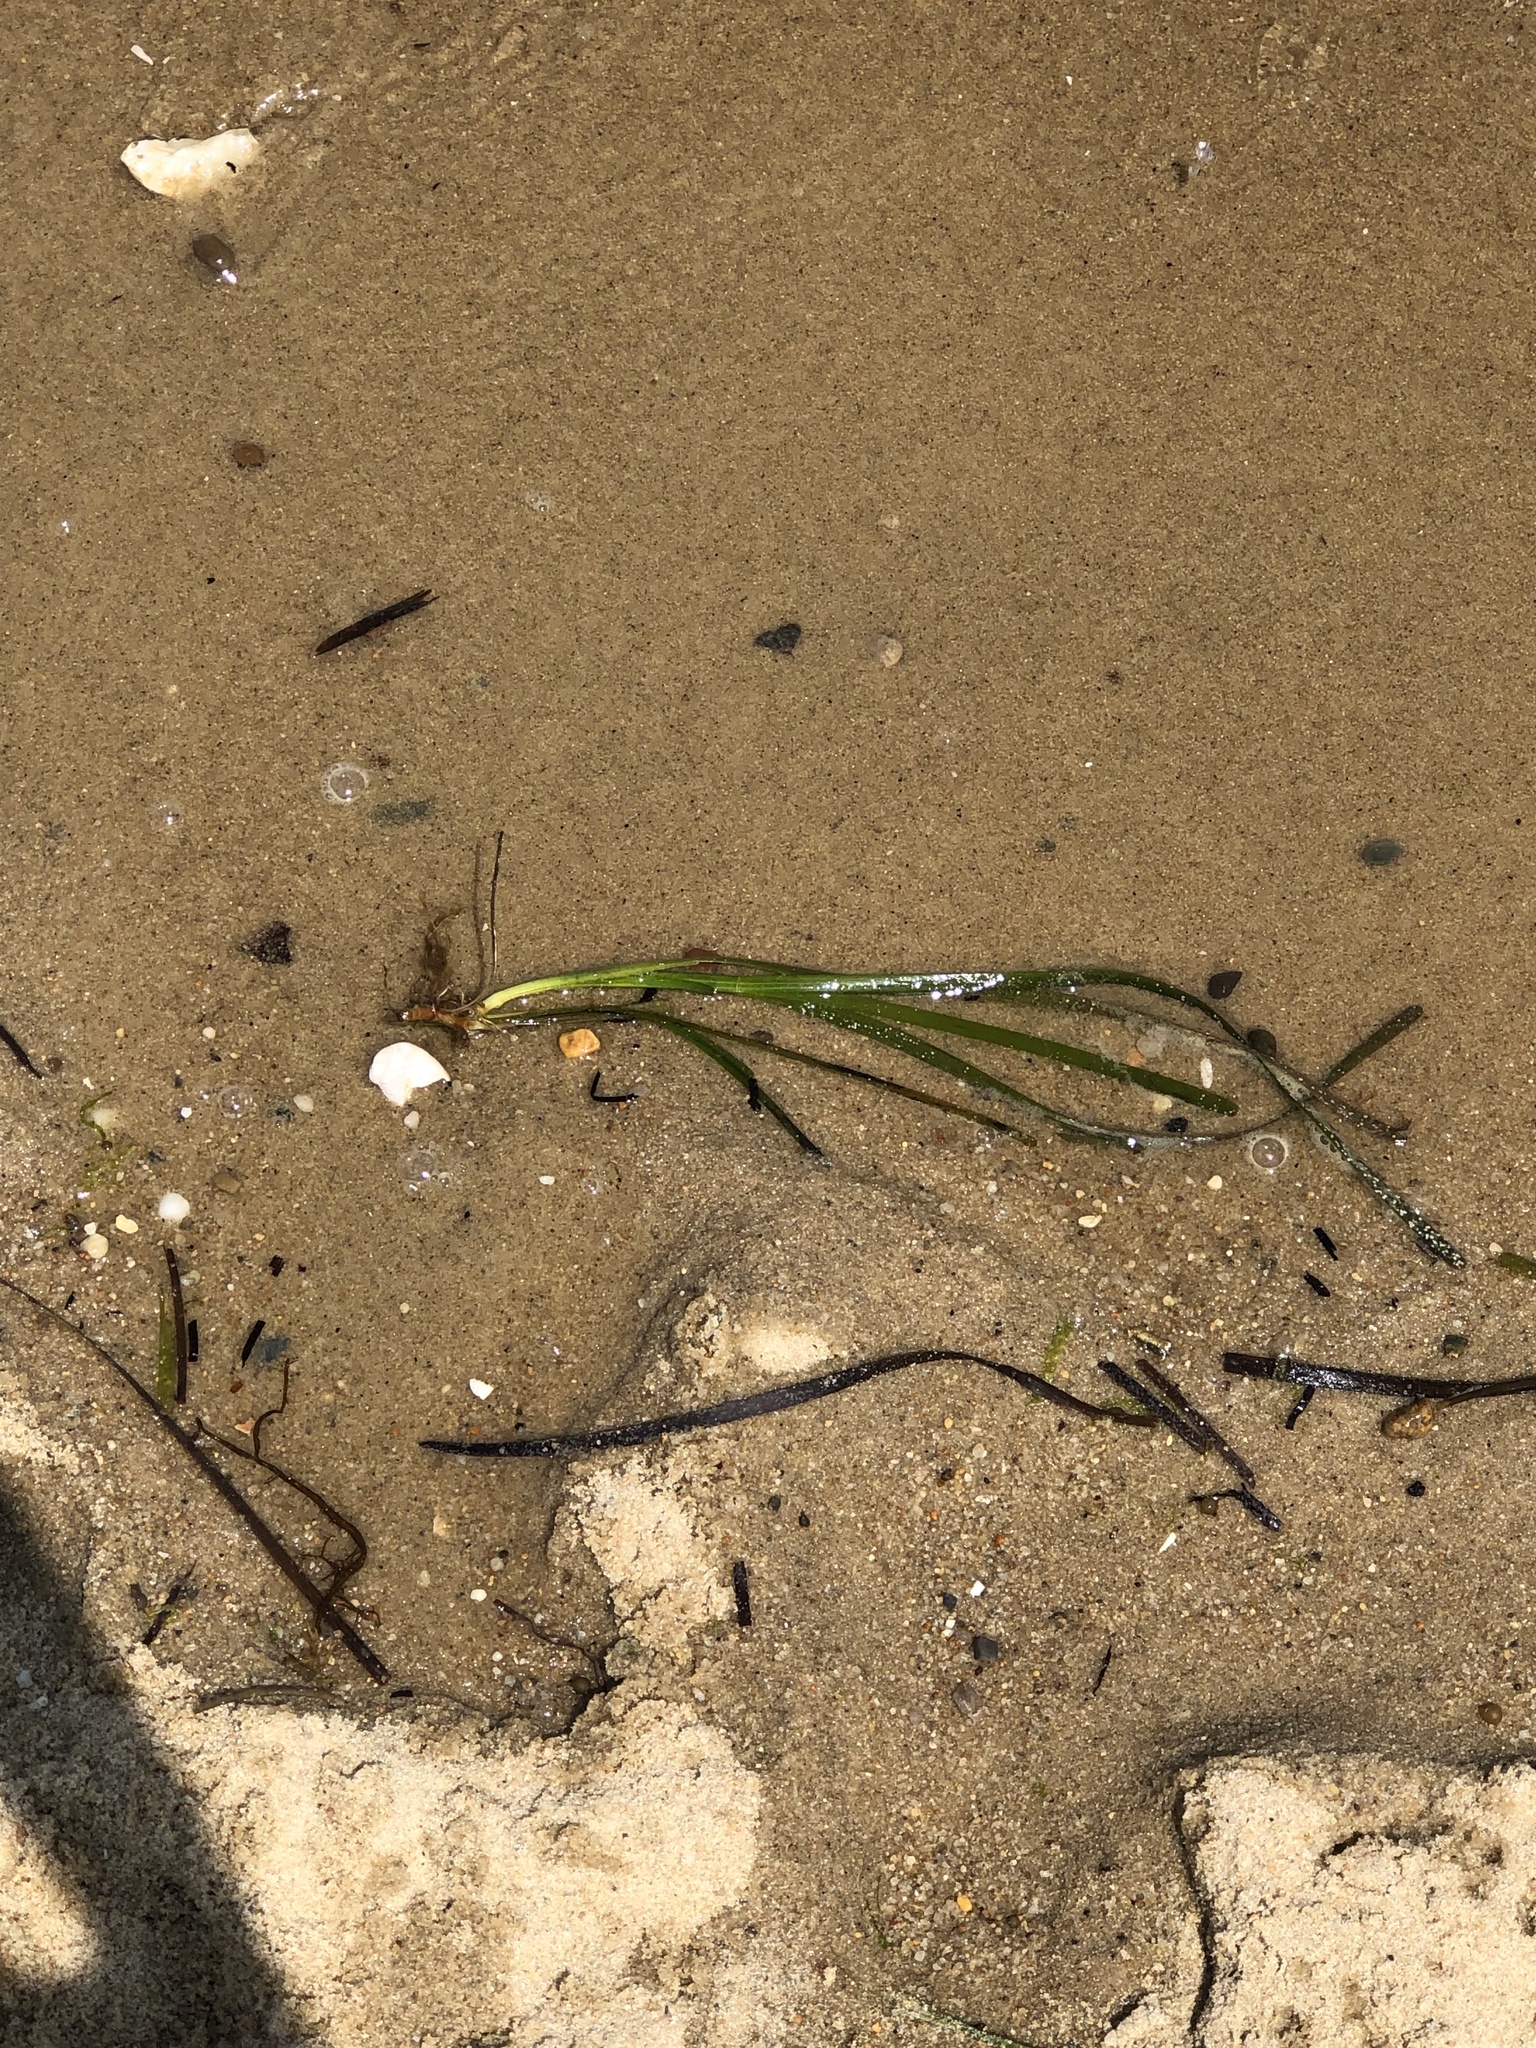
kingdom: Plantae
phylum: Tracheophyta
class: Liliopsida
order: Alismatales
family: Zosteraceae
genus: Zostera
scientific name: Zostera marina
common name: Eelgrass
